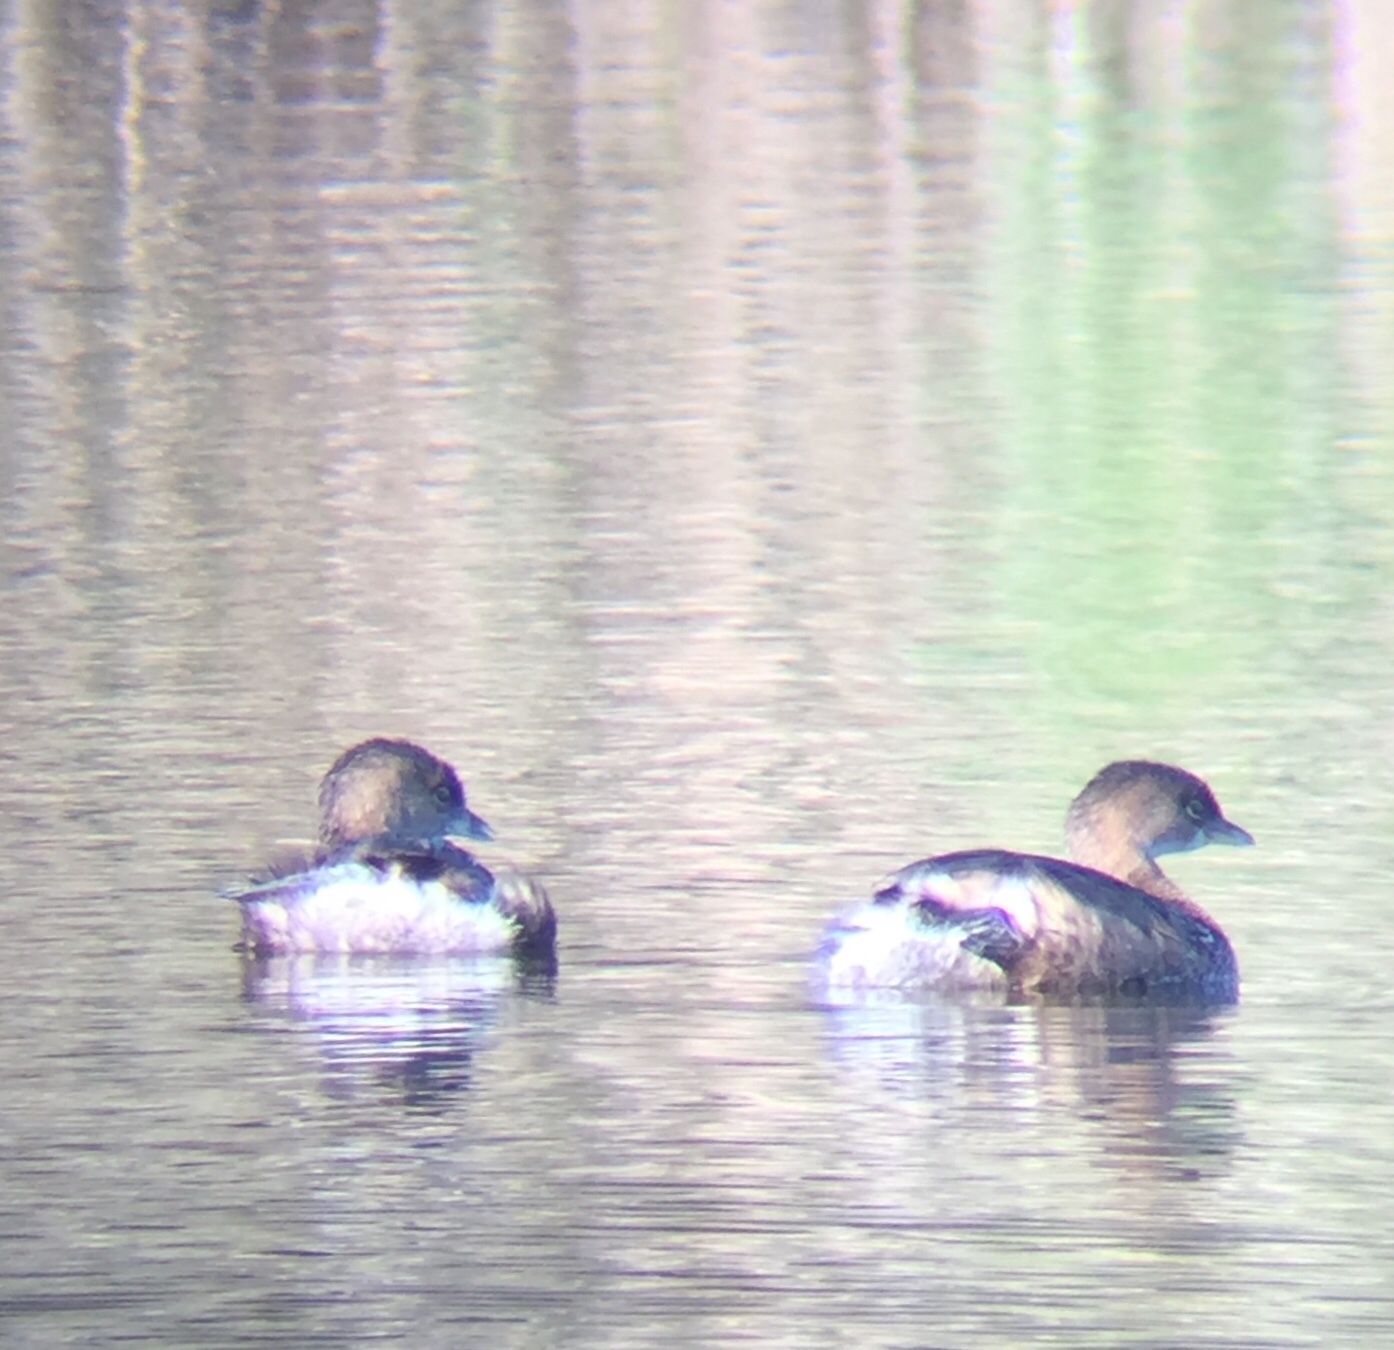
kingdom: Animalia
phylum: Chordata
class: Aves
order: Podicipediformes
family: Podicipedidae
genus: Podilymbus
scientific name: Podilymbus podiceps
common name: Pied-billed grebe
